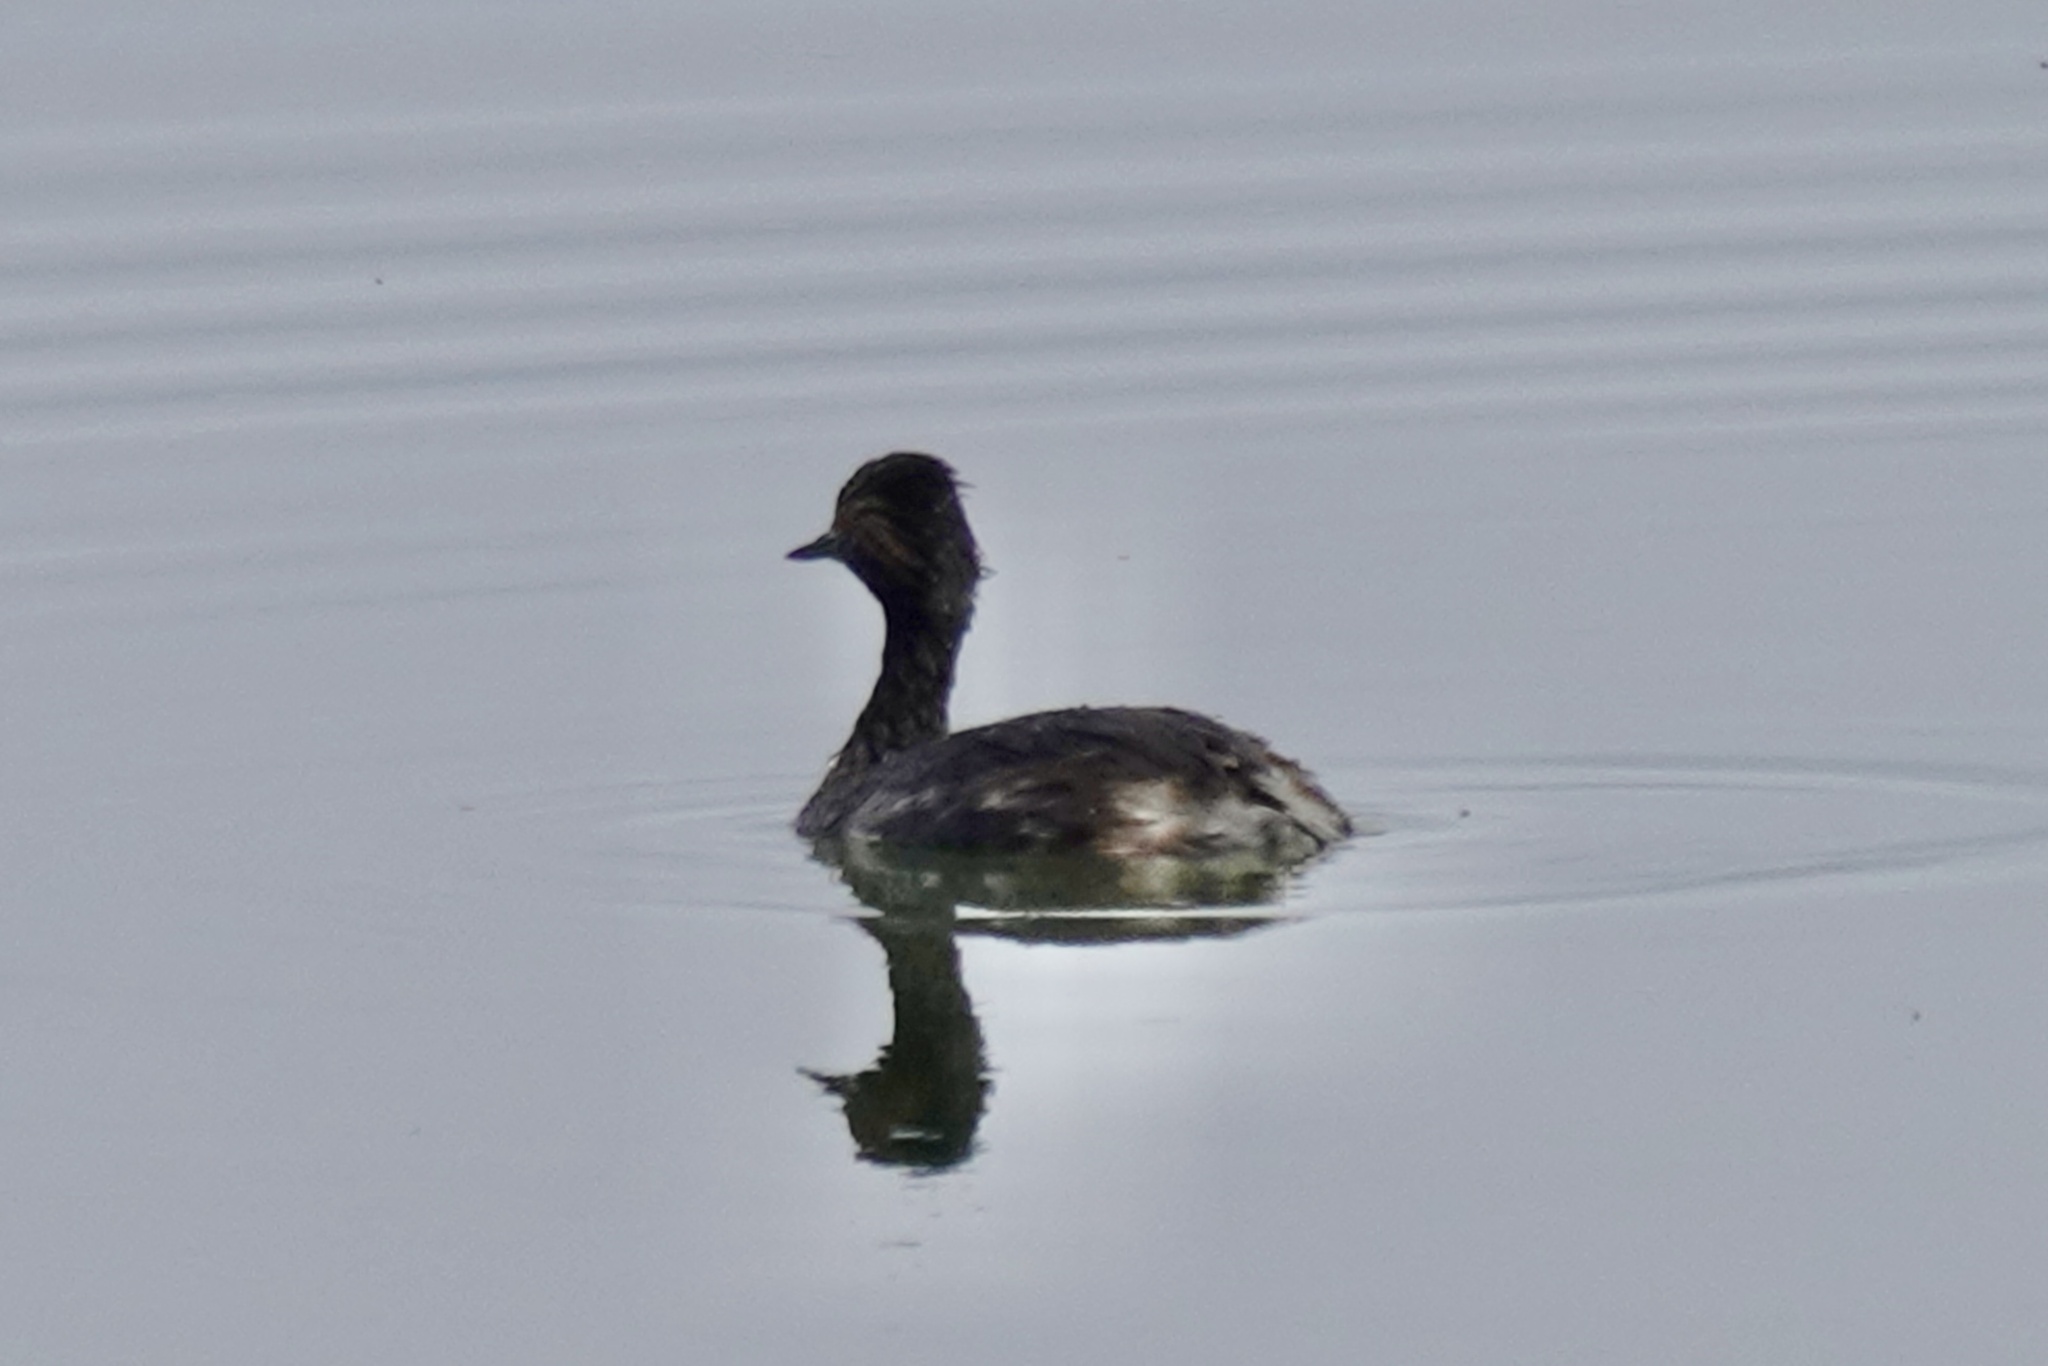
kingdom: Animalia
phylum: Chordata
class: Aves
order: Podicipediformes
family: Podicipedidae
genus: Podiceps
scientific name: Podiceps nigricollis
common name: Black-necked grebe
